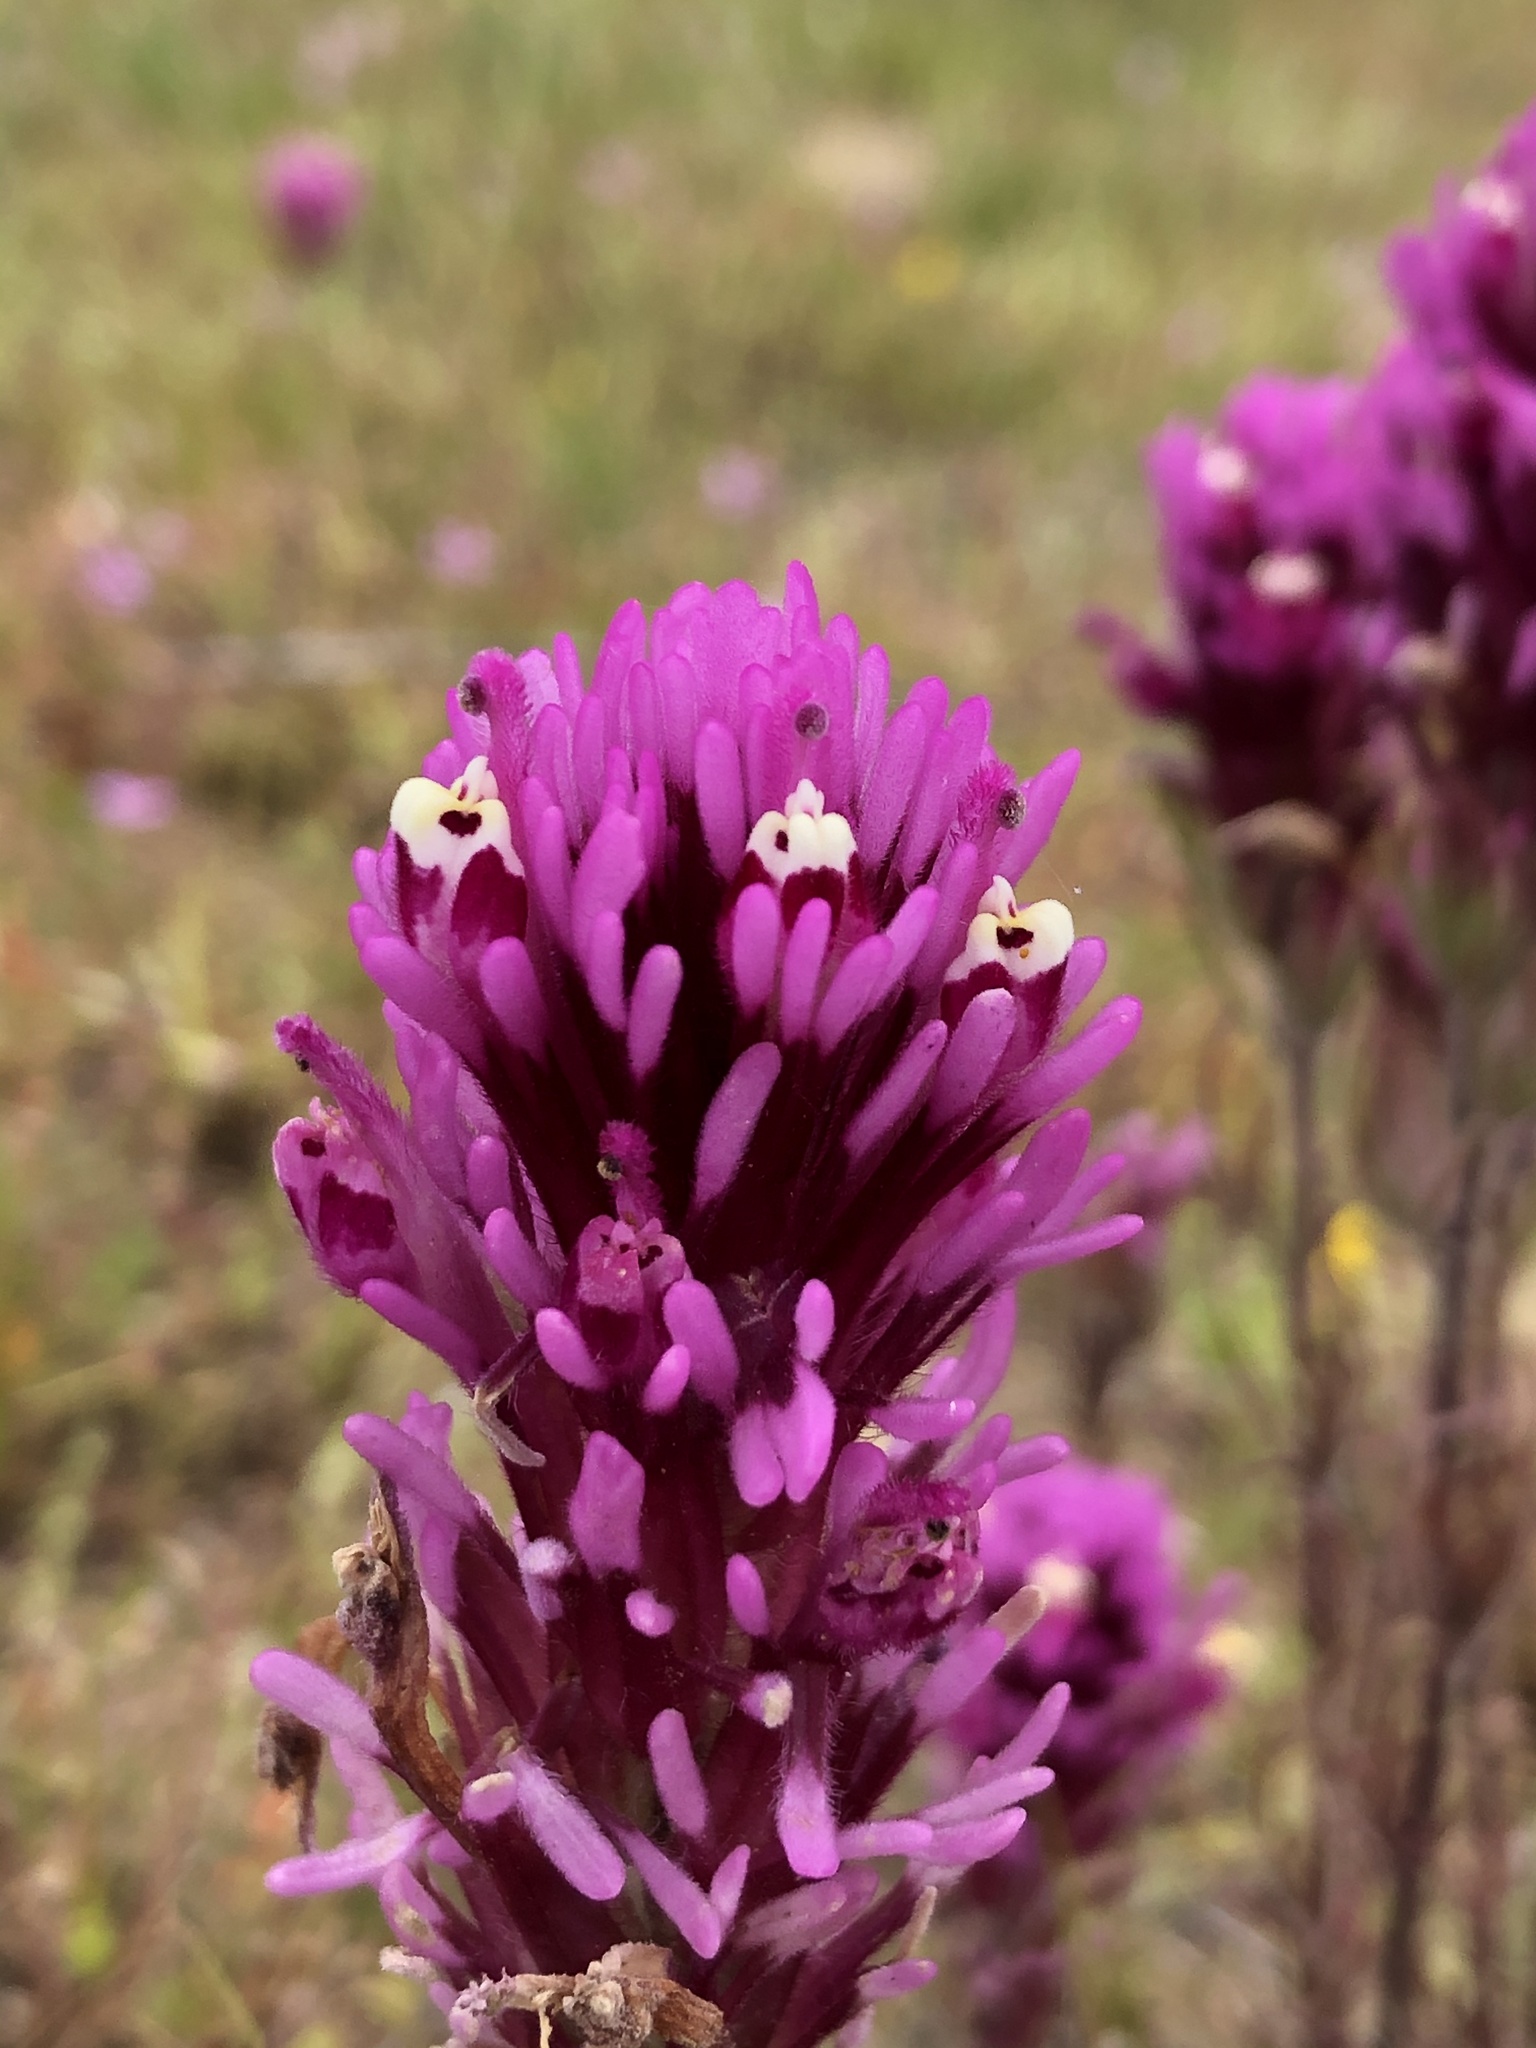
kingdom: Plantae
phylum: Tracheophyta
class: Magnoliopsida
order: Lamiales
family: Orobanchaceae
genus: Castilleja
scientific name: Castilleja exserta
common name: Purple owl-clover
